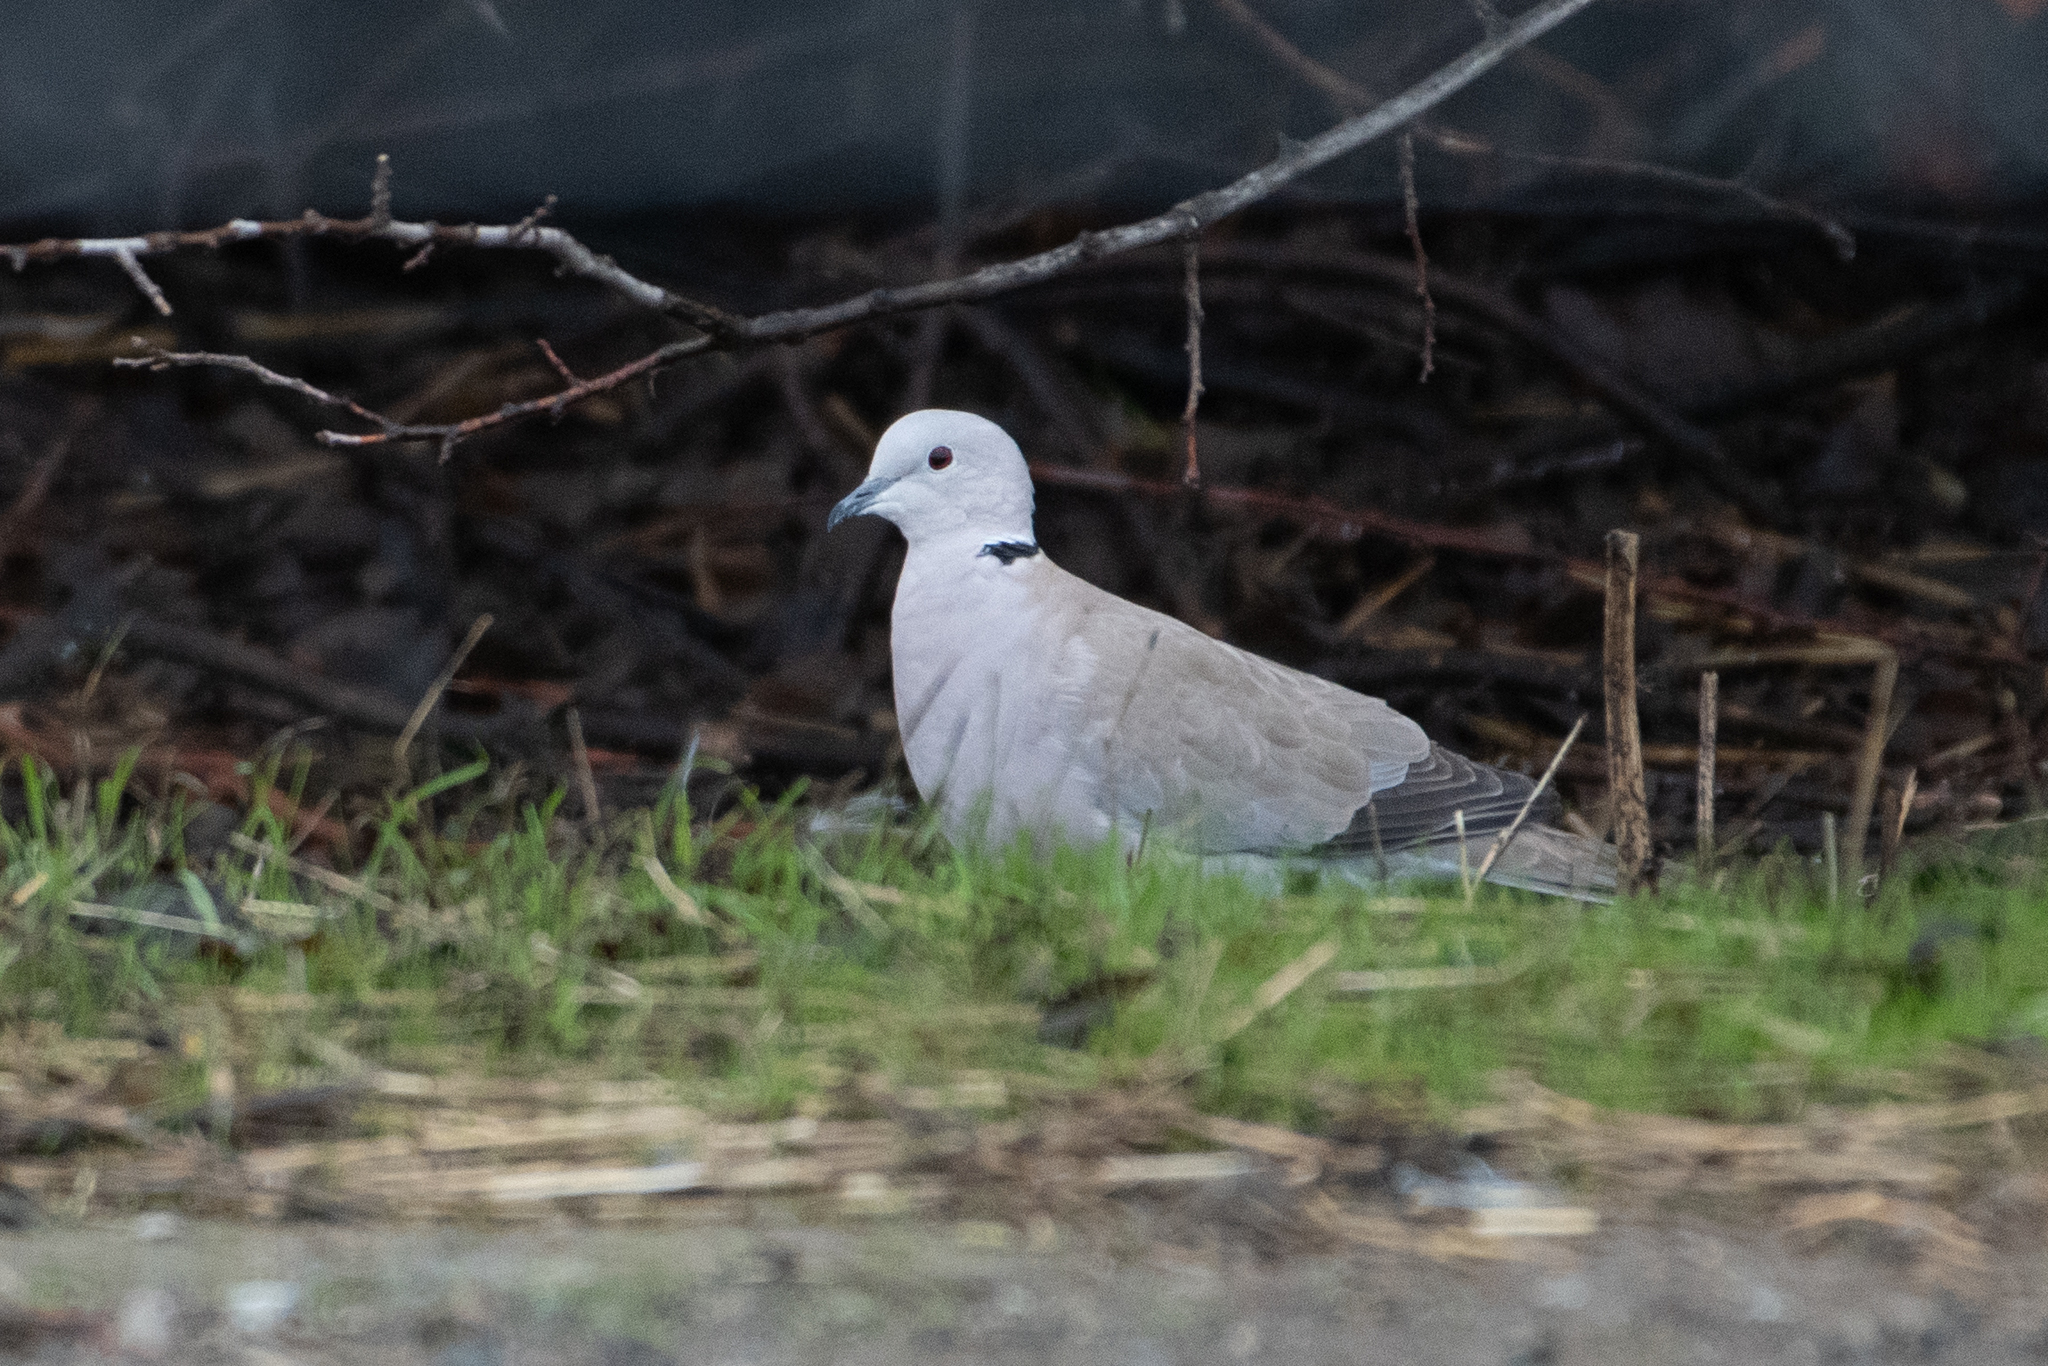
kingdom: Animalia
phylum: Chordata
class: Aves
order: Columbiformes
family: Columbidae
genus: Streptopelia
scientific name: Streptopelia decaocto
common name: Eurasian collared dove
